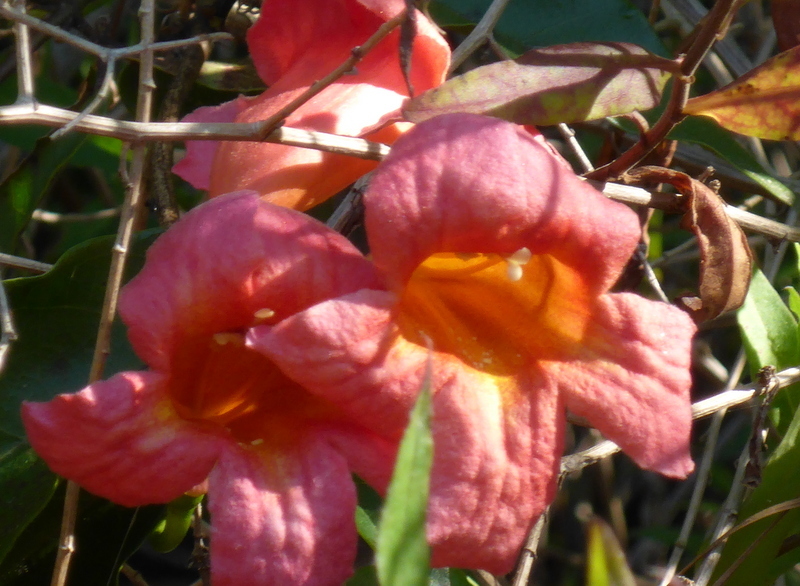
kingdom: Plantae
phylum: Tracheophyta
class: Magnoliopsida
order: Lamiales
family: Bignoniaceae
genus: Bignonia
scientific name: Bignonia capreolata
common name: Crossvine
